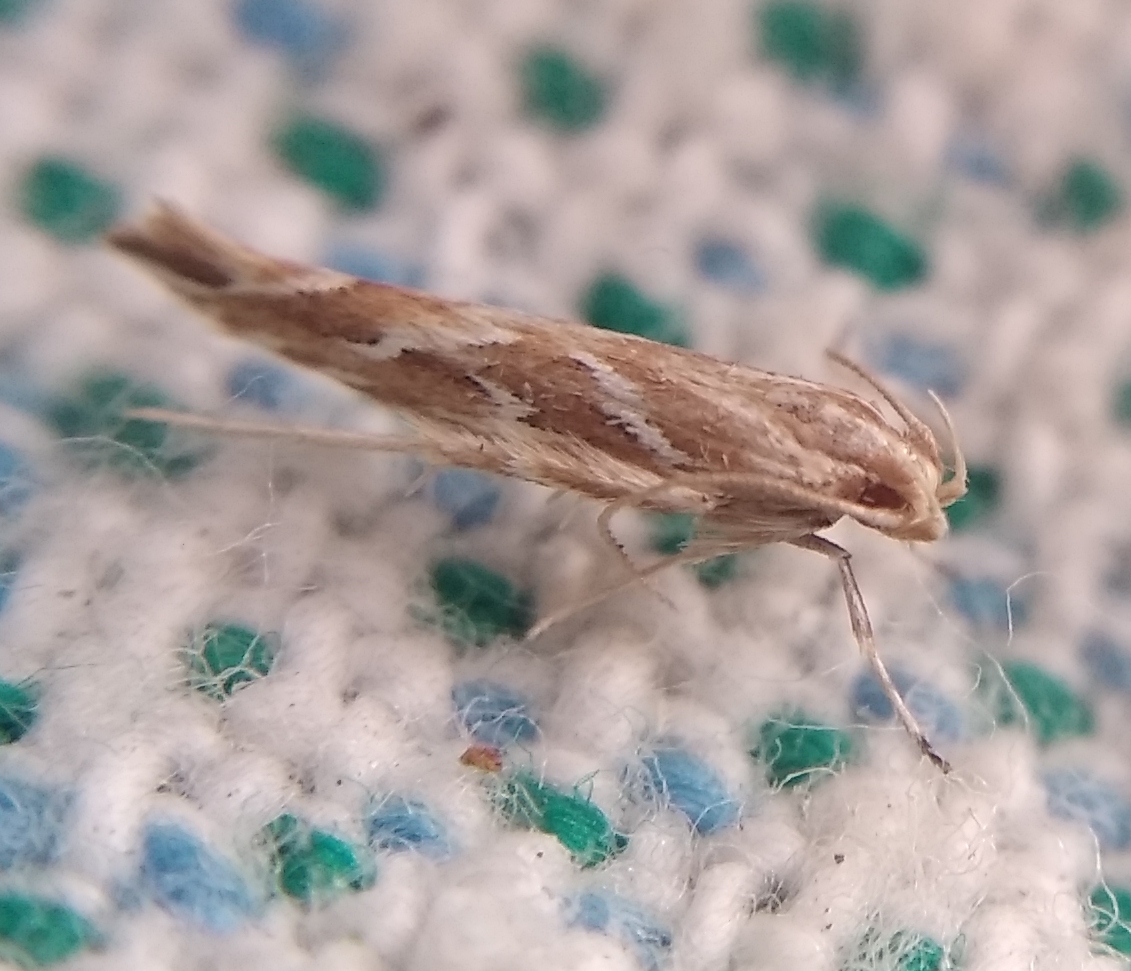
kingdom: Animalia
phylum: Arthropoda
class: Insecta
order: Lepidoptera
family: Cosmopterigidae
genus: Pyroderces
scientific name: Pyroderces argyrogrammos
